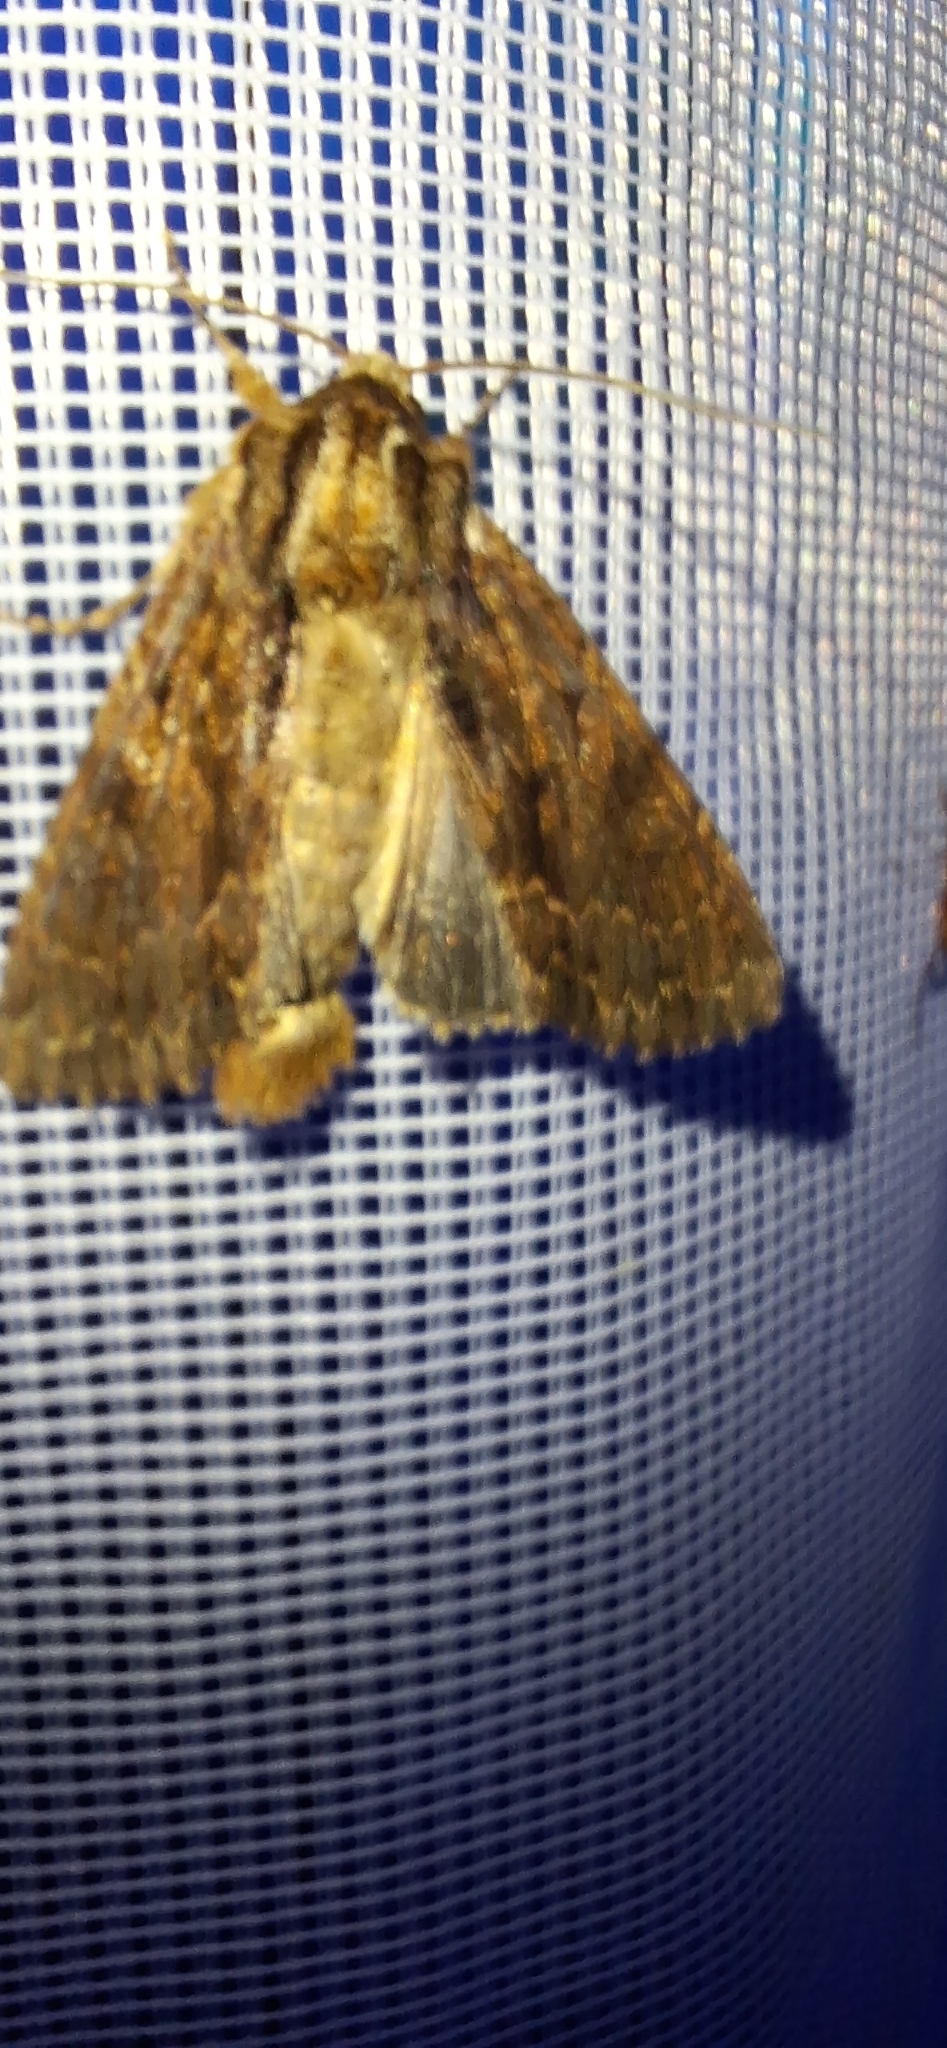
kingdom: Animalia
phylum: Arthropoda
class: Insecta
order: Lepidoptera
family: Noctuidae
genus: Apamea
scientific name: Apamea monoglypha
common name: Dark arches
